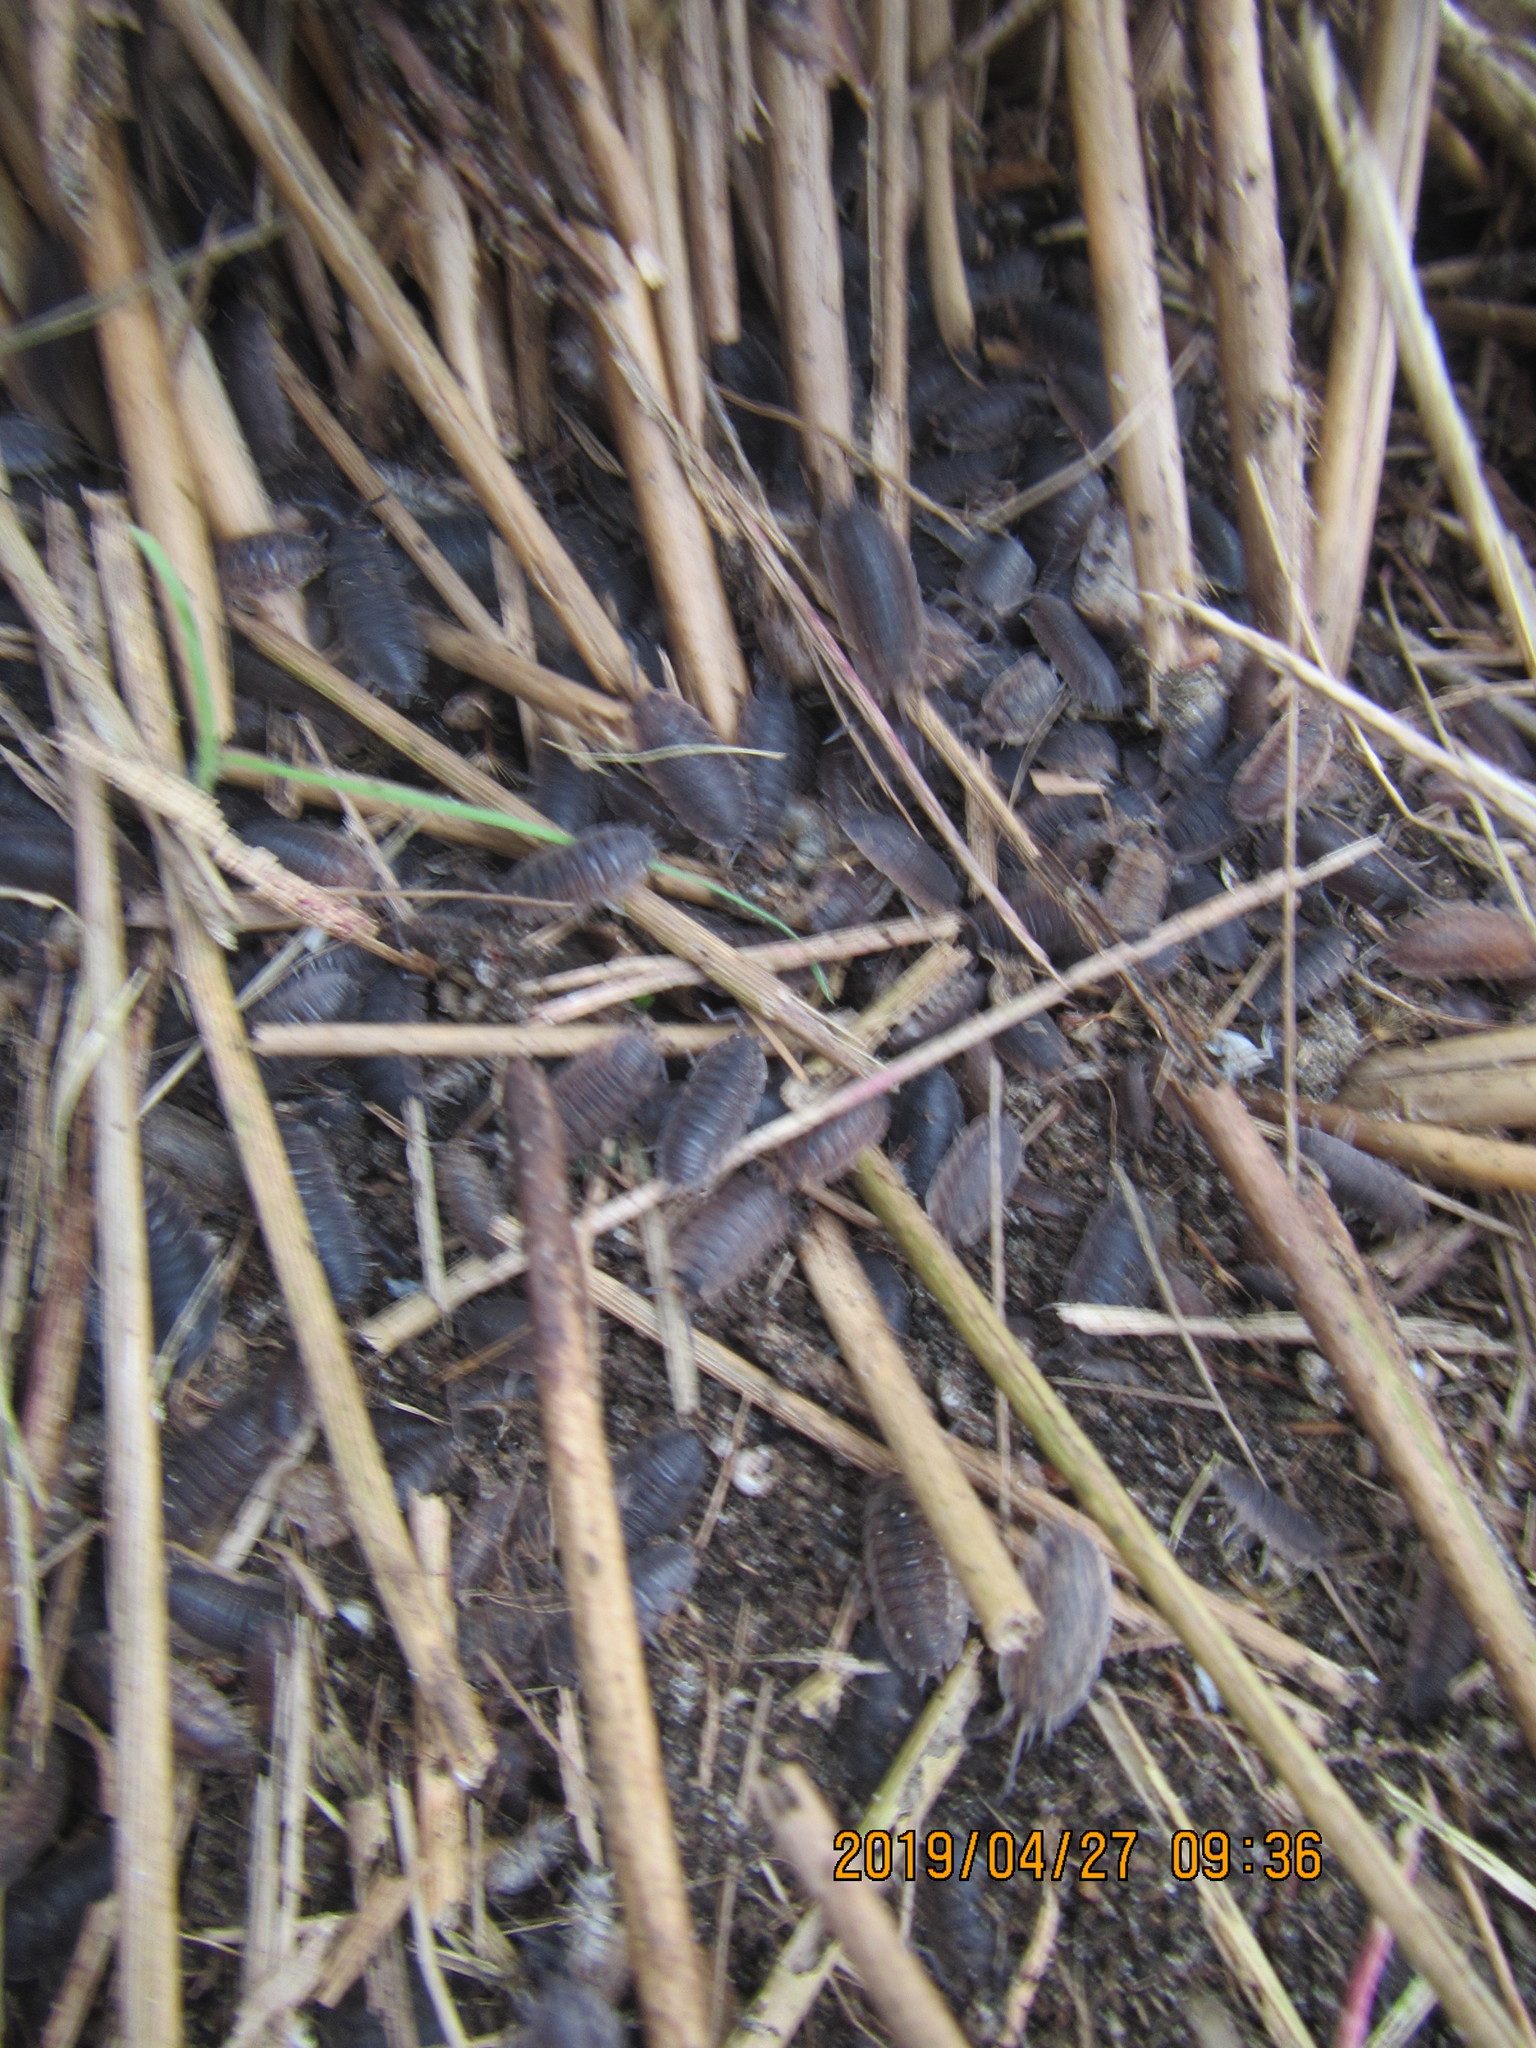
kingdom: Animalia
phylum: Arthropoda
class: Malacostraca
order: Isopoda
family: Porcellionidae
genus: Porcellio
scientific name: Porcellio scaber
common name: Common rough woodlouse
